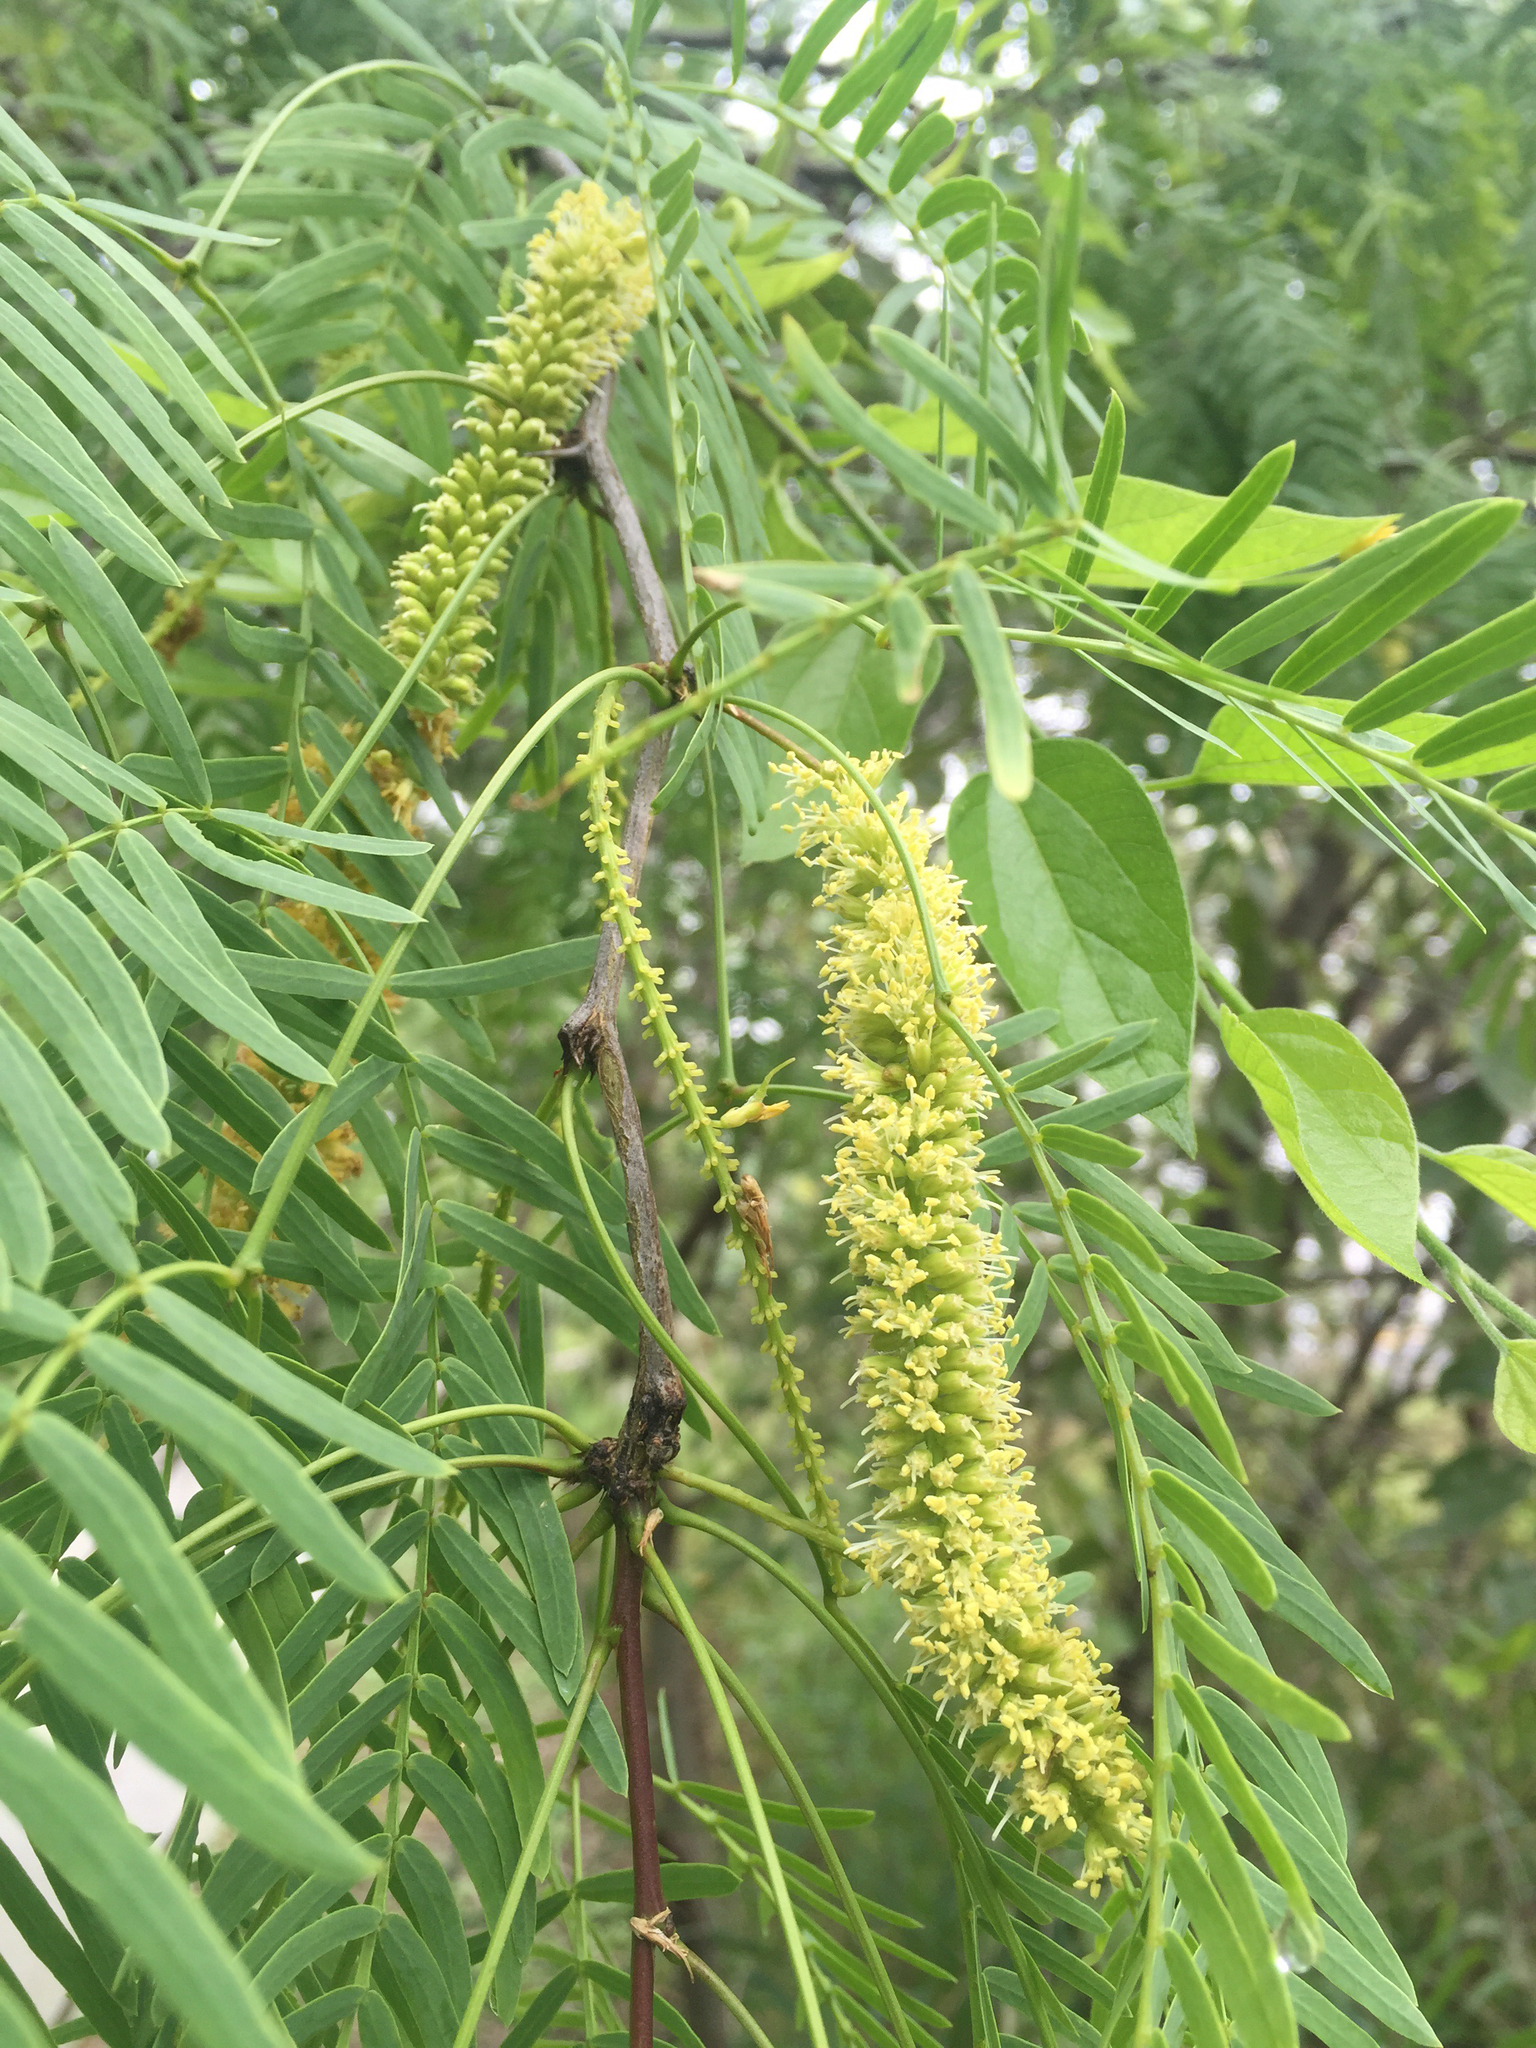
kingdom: Plantae
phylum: Tracheophyta
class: Magnoliopsida
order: Fabales
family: Fabaceae
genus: Prosopis
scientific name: Prosopis glandulosa
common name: Honey mesquite
